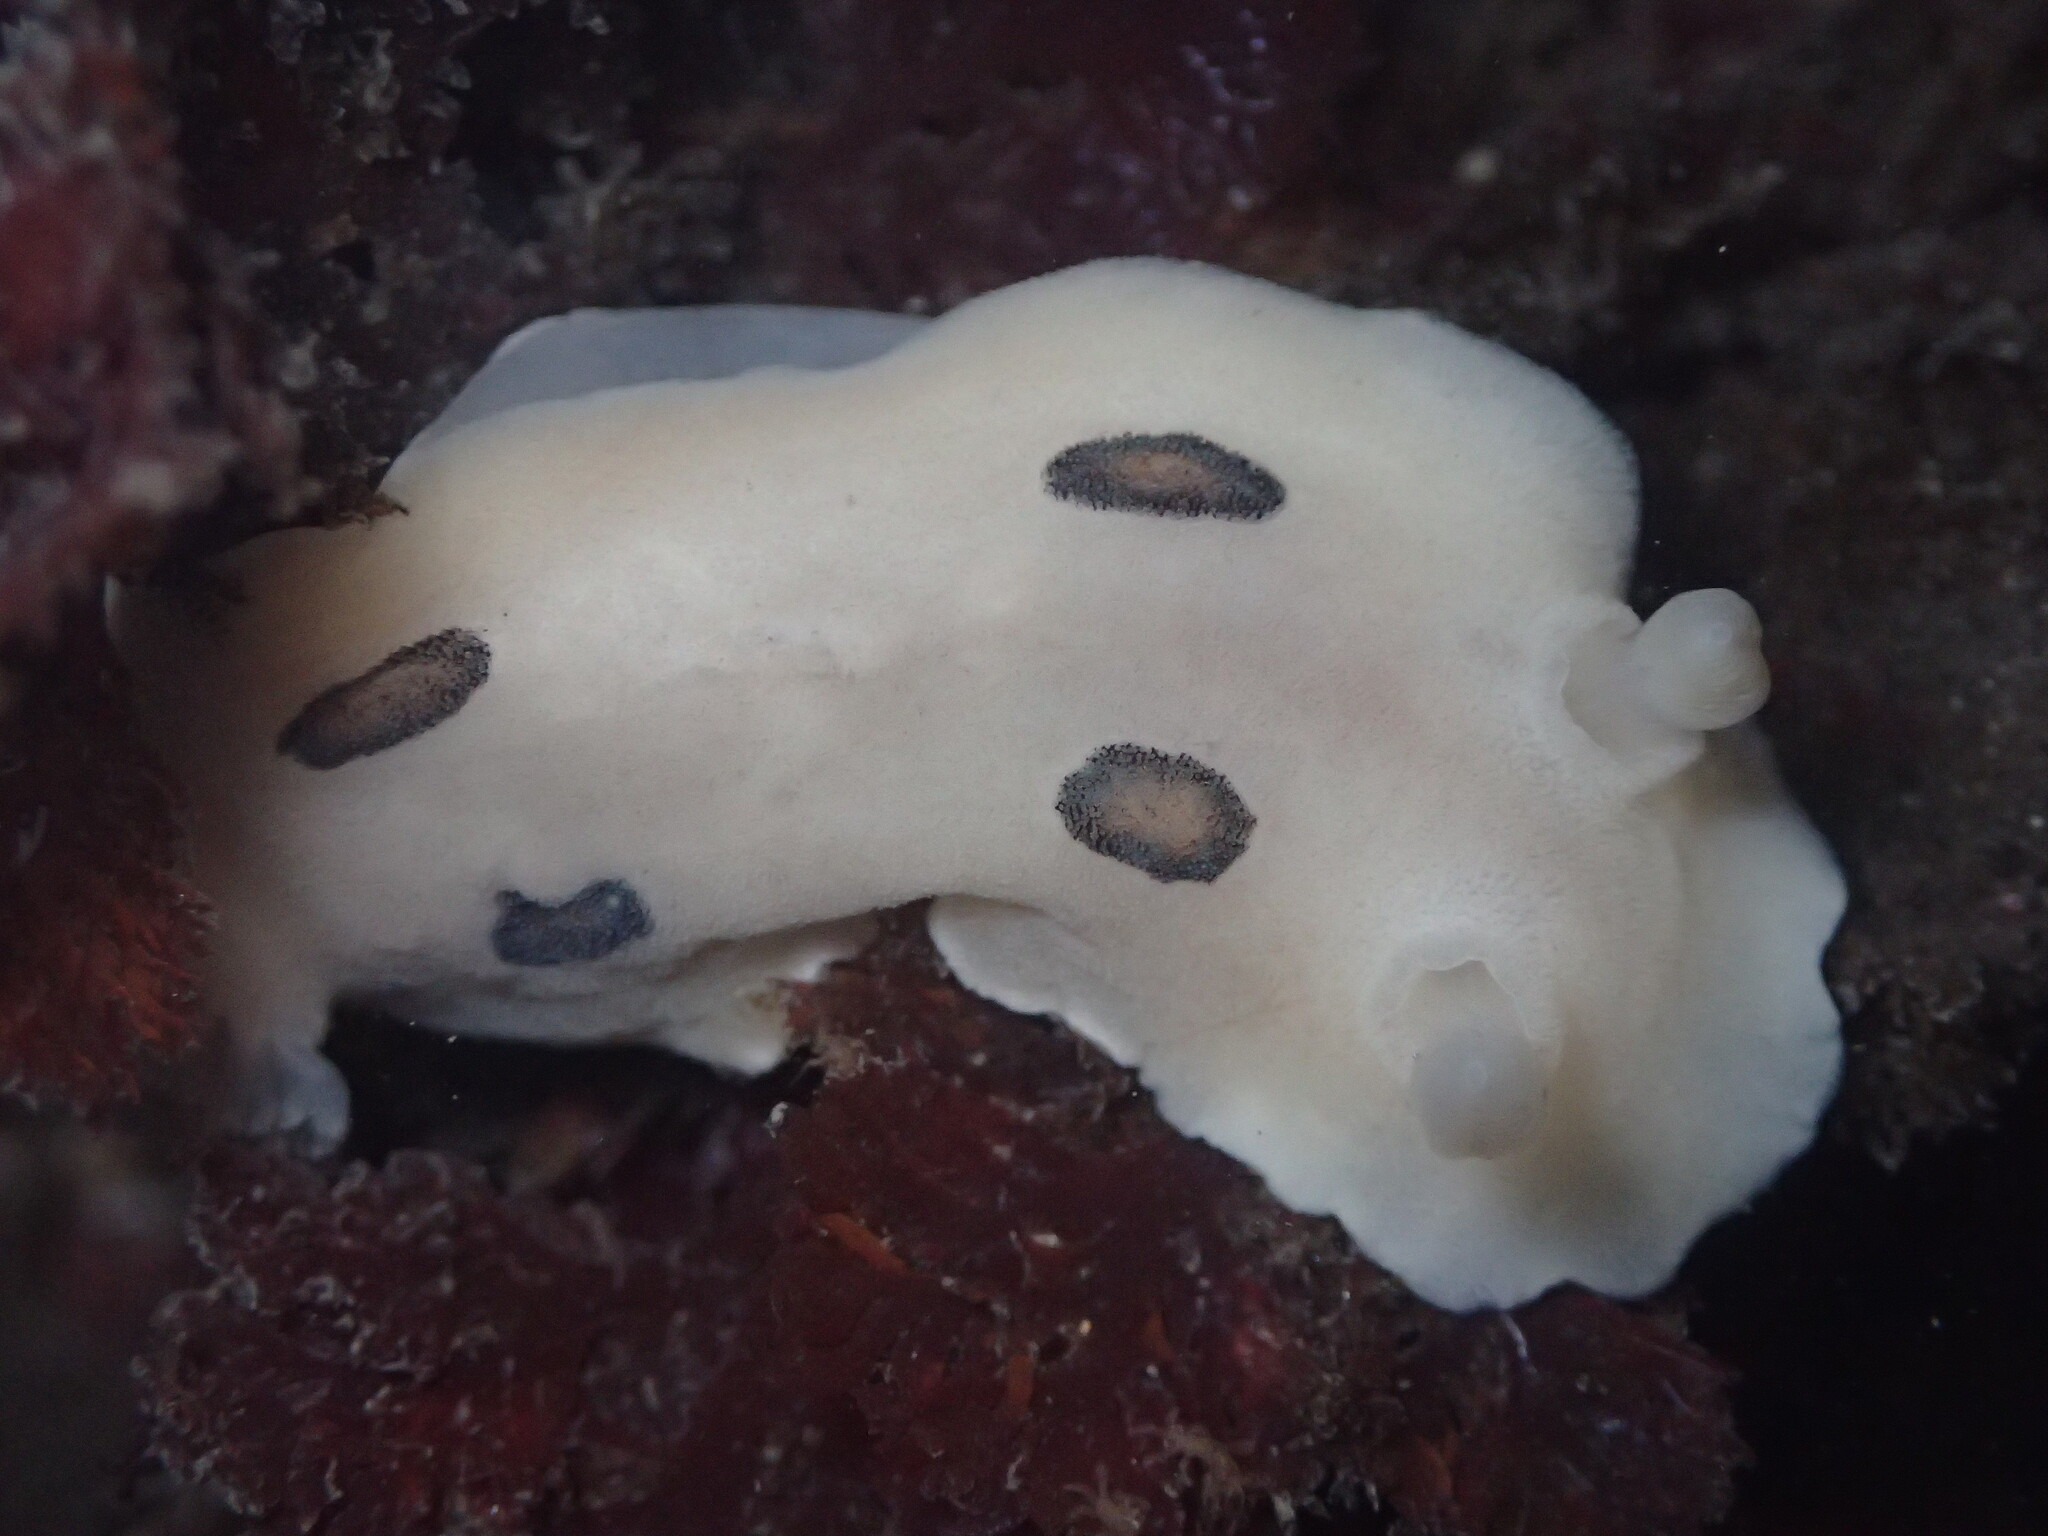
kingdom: Animalia
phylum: Mollusca
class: Gastropoda
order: Nudibranchia
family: Discodorididae
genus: Diaulula
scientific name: Diaulula sandiegensis
